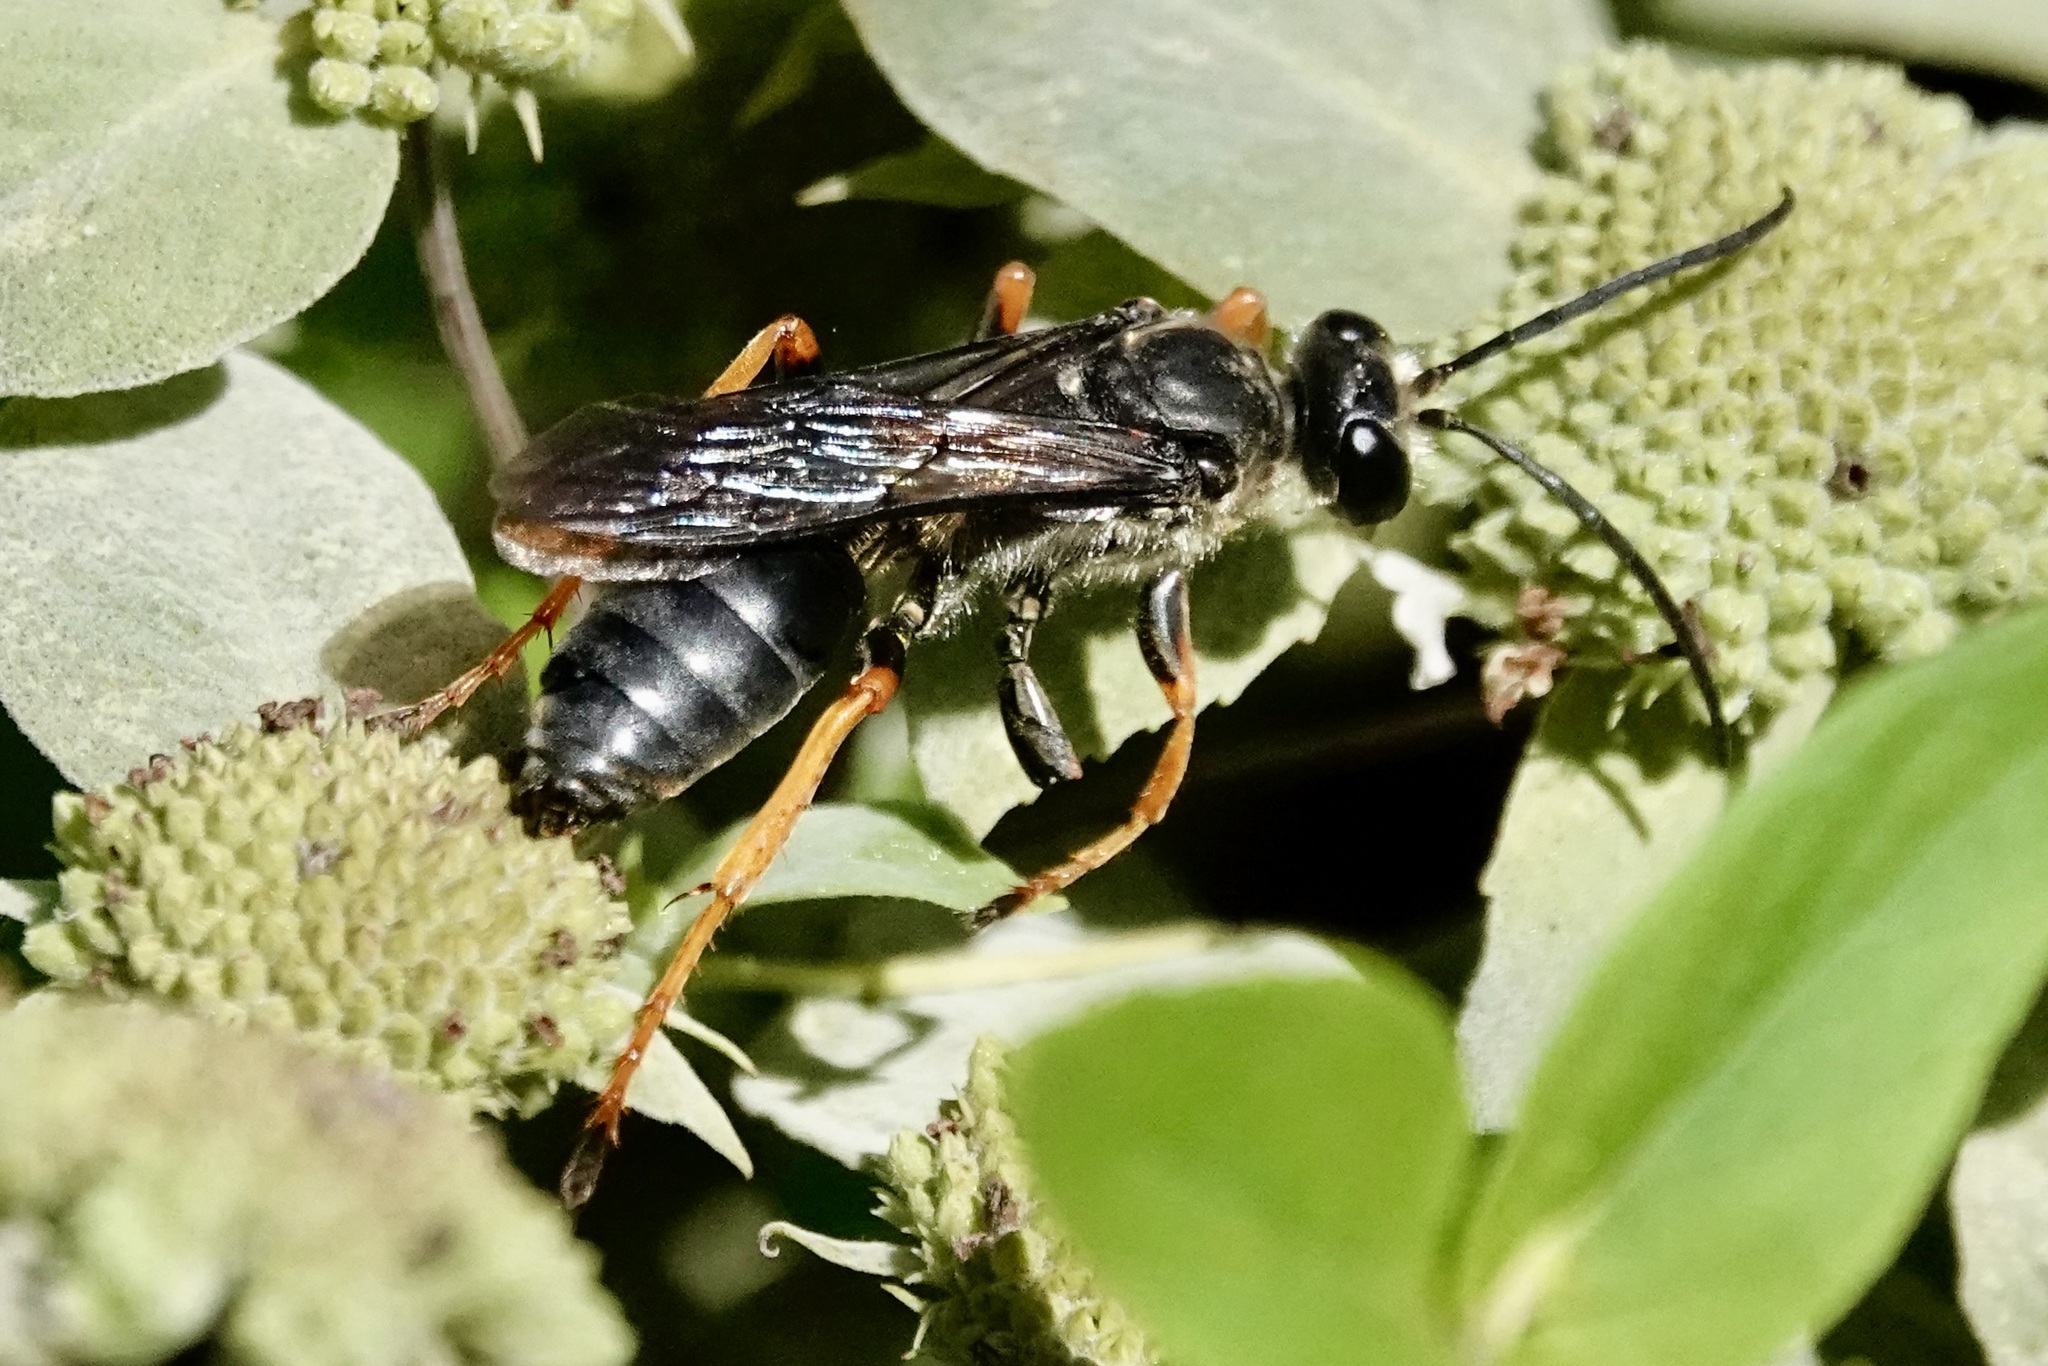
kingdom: Animalia
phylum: Arthropoda
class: Insecta
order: Hymenoptera
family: Sphecidae
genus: Sphex
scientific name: Sphex nudus
